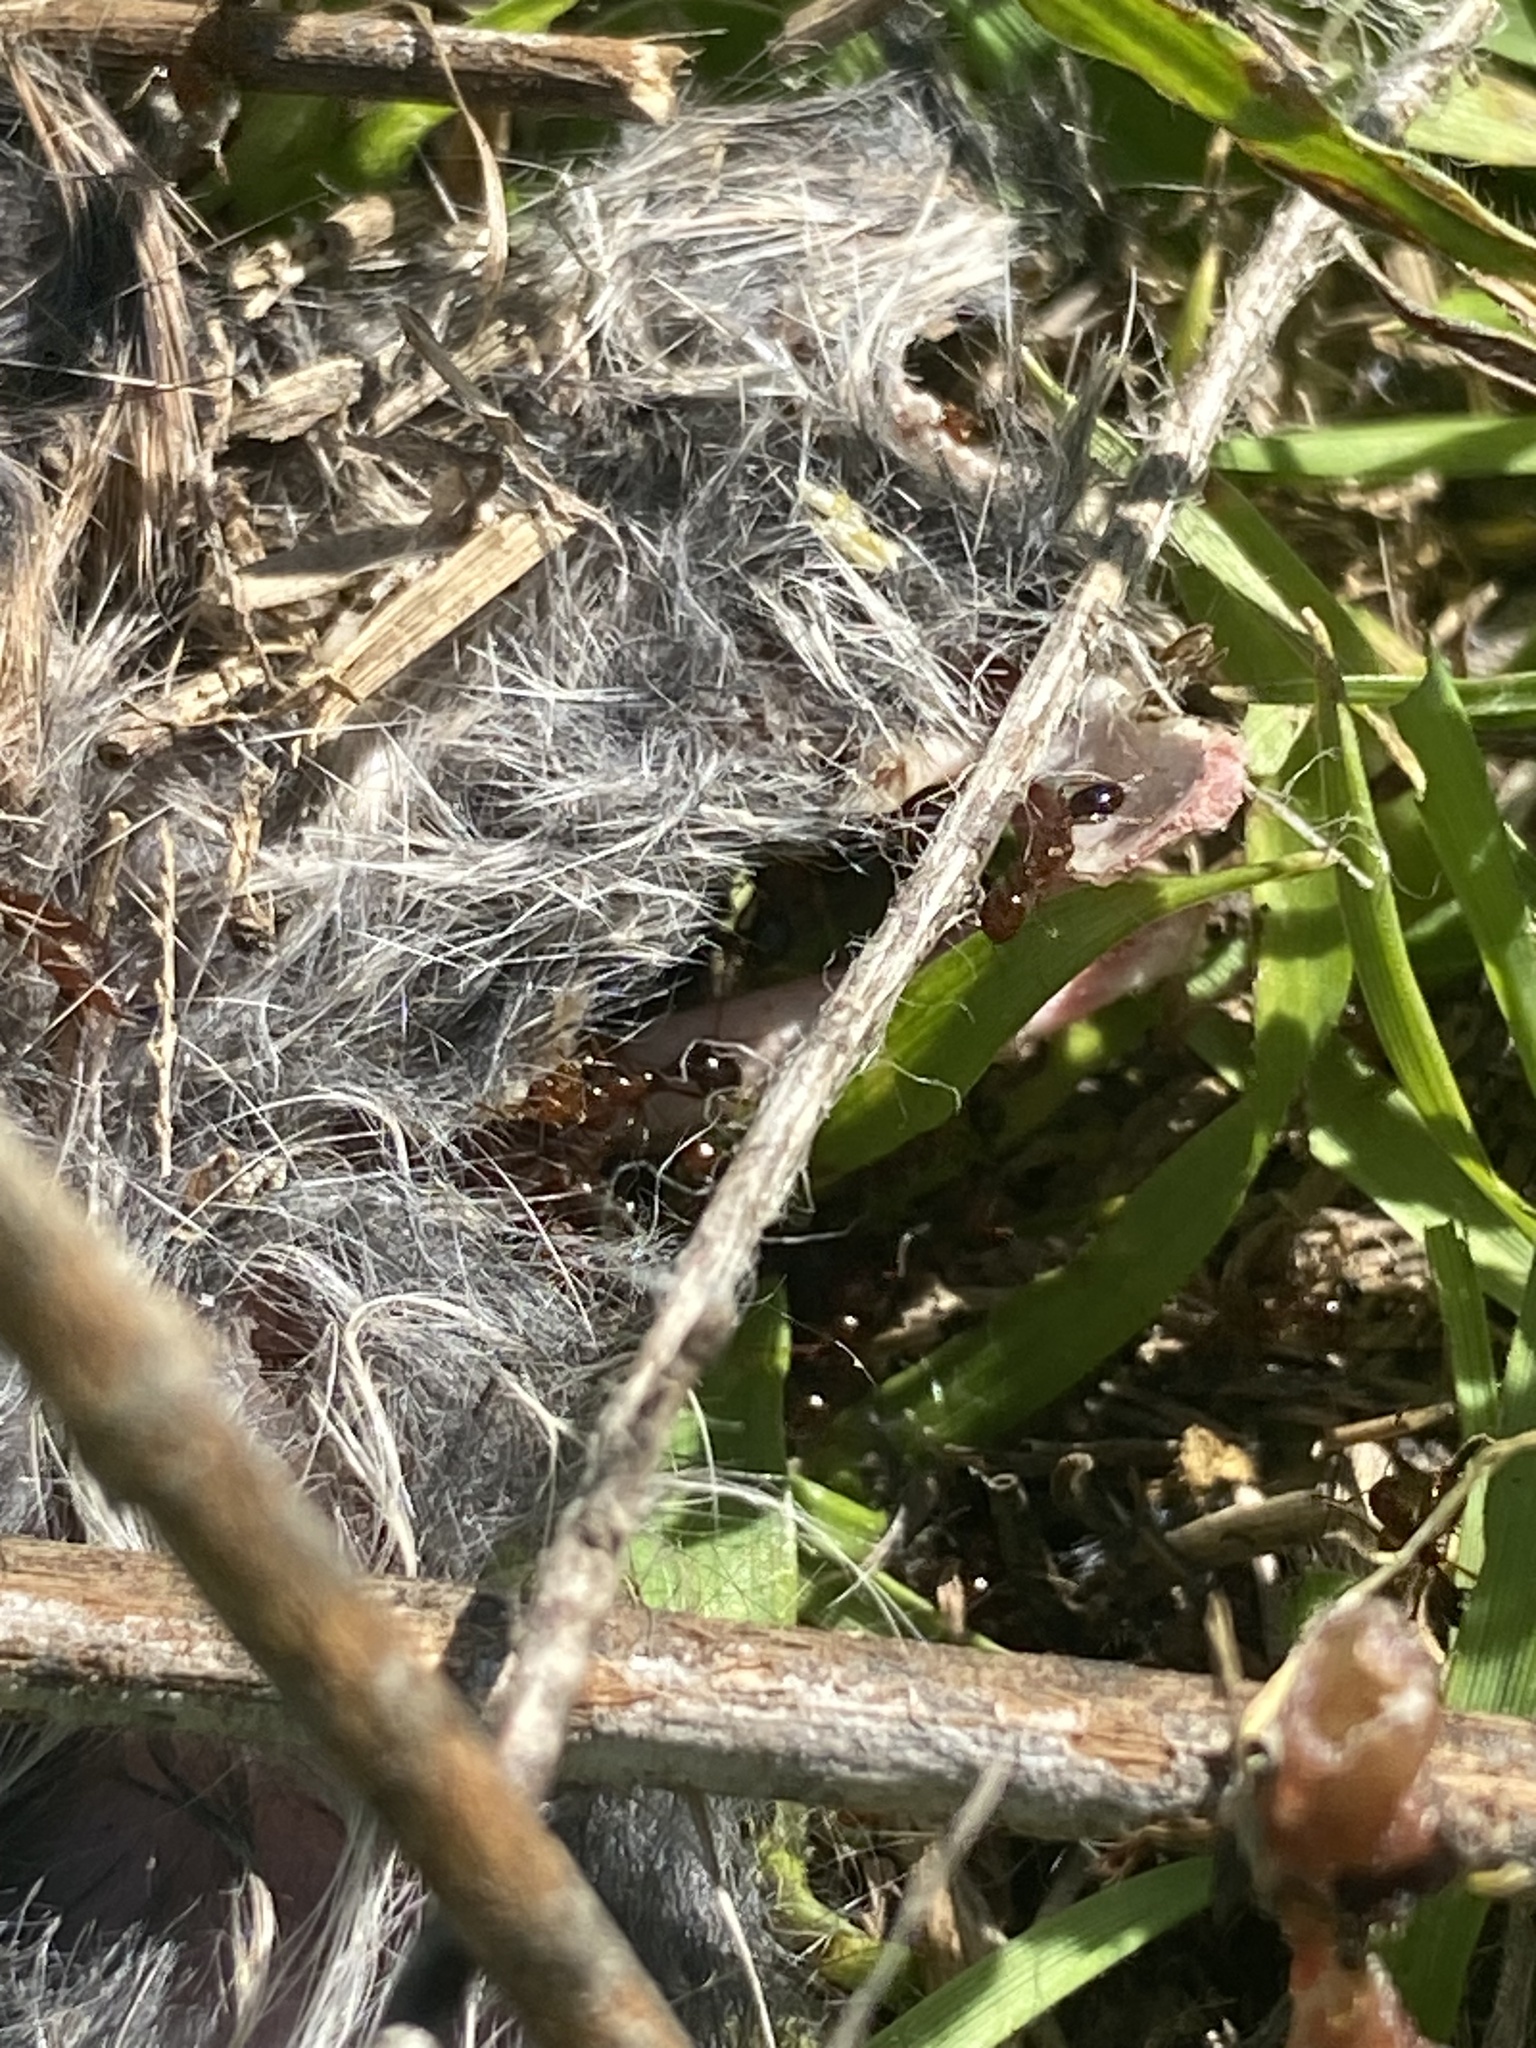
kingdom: Animalia
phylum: Arthropoda
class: Insecta
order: Hymenoptera
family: Formicidae
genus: Solenopsis
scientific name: Solenopsis invicta
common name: Red imported fire ant
